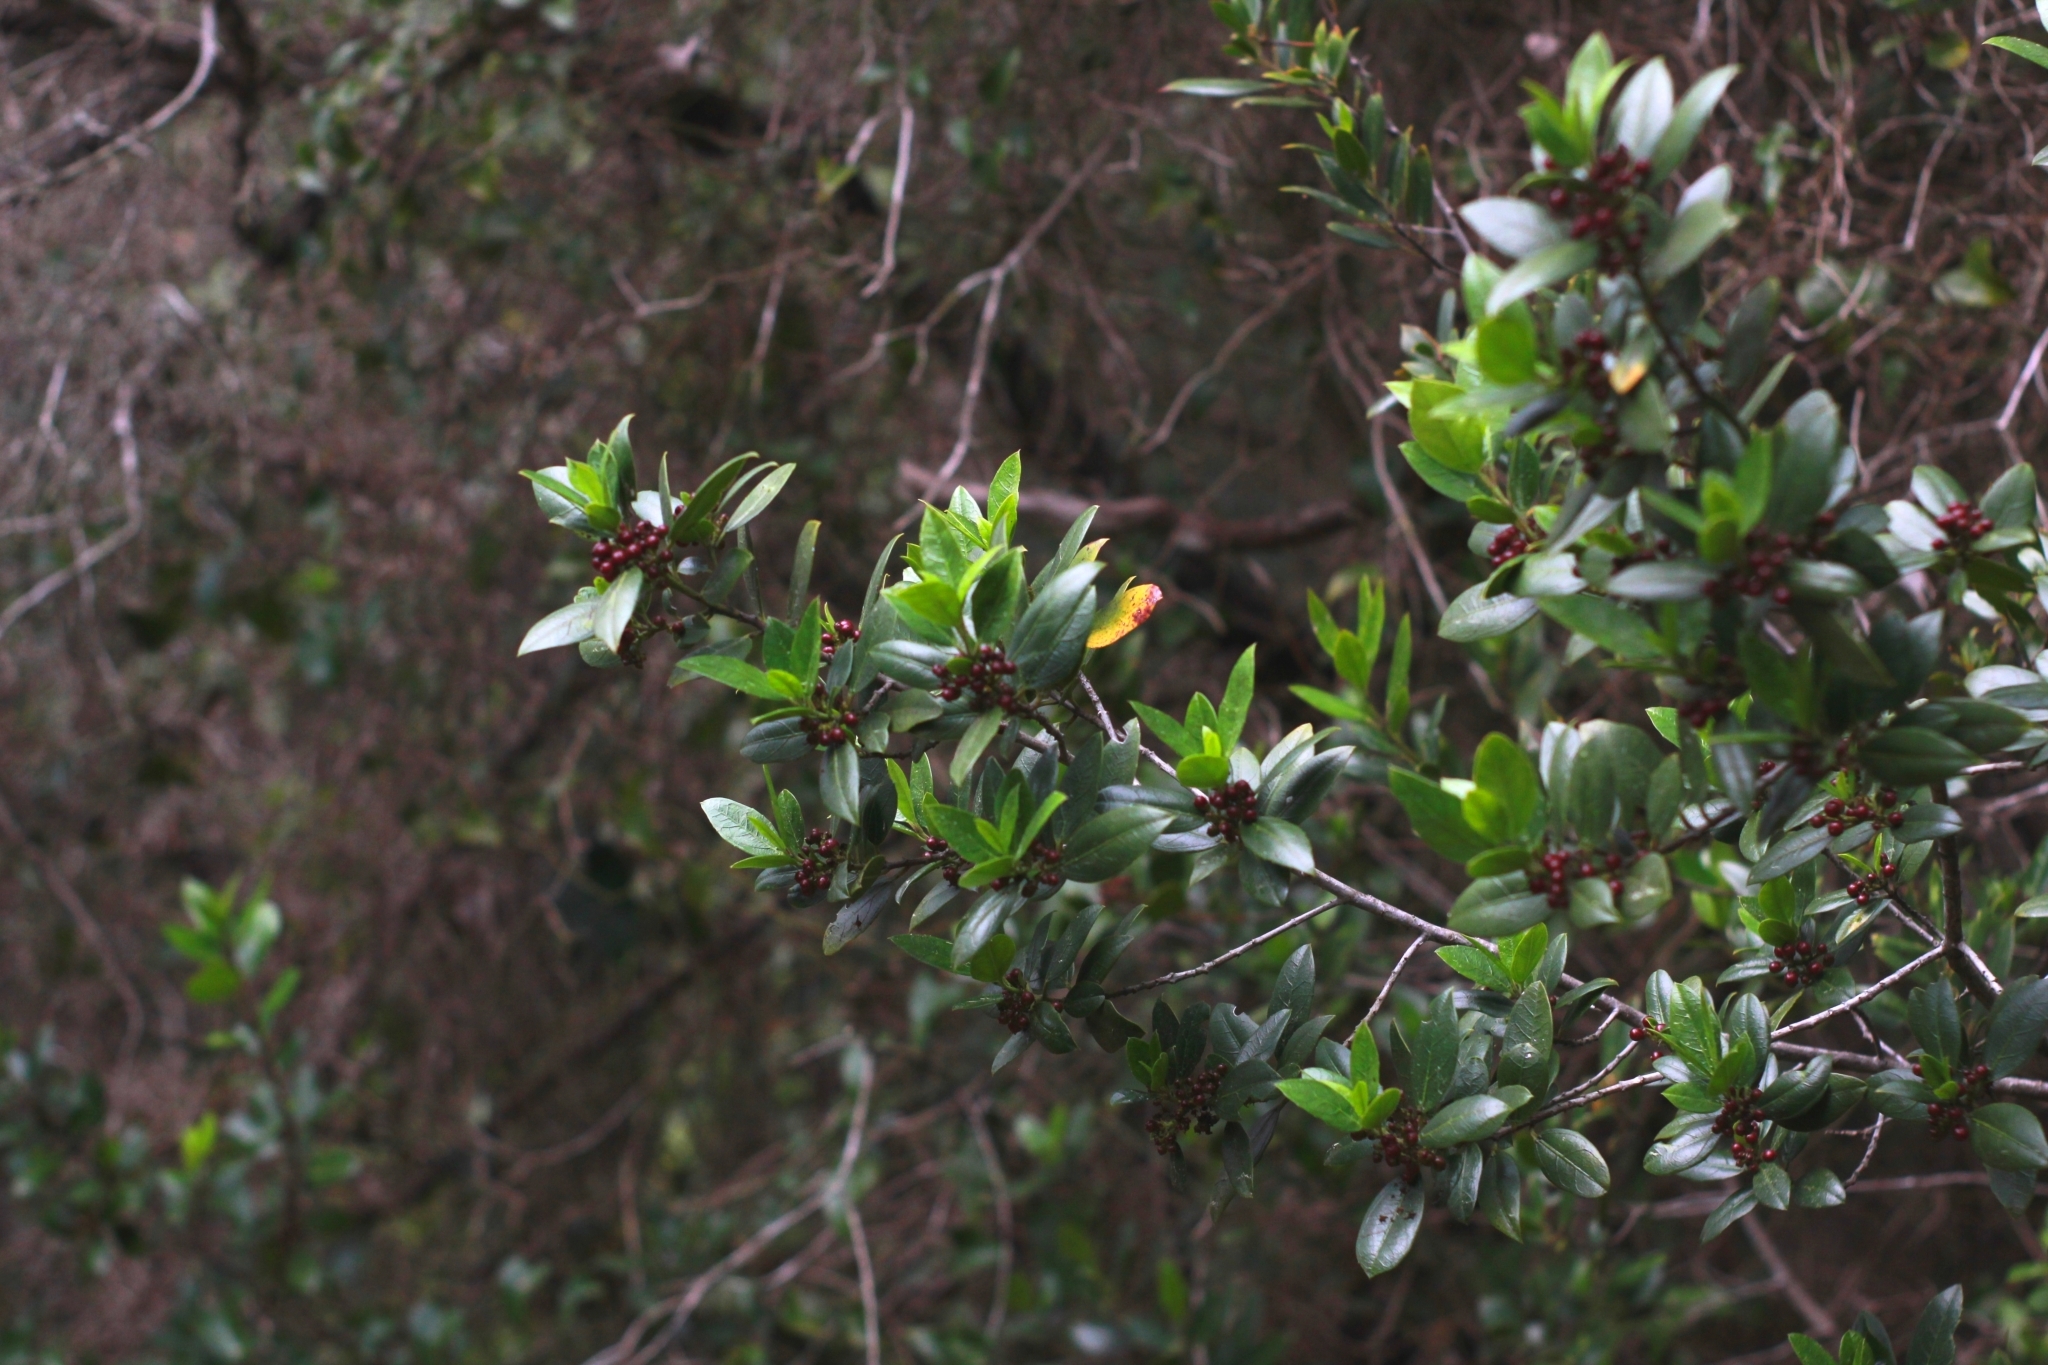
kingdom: Plantae
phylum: Tracheophyta
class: Magnoliopsida
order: Rosales
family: Rhamnaceae
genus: Rhamnus
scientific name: Rhamnus alaternus
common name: Mediterranean buckthorn
